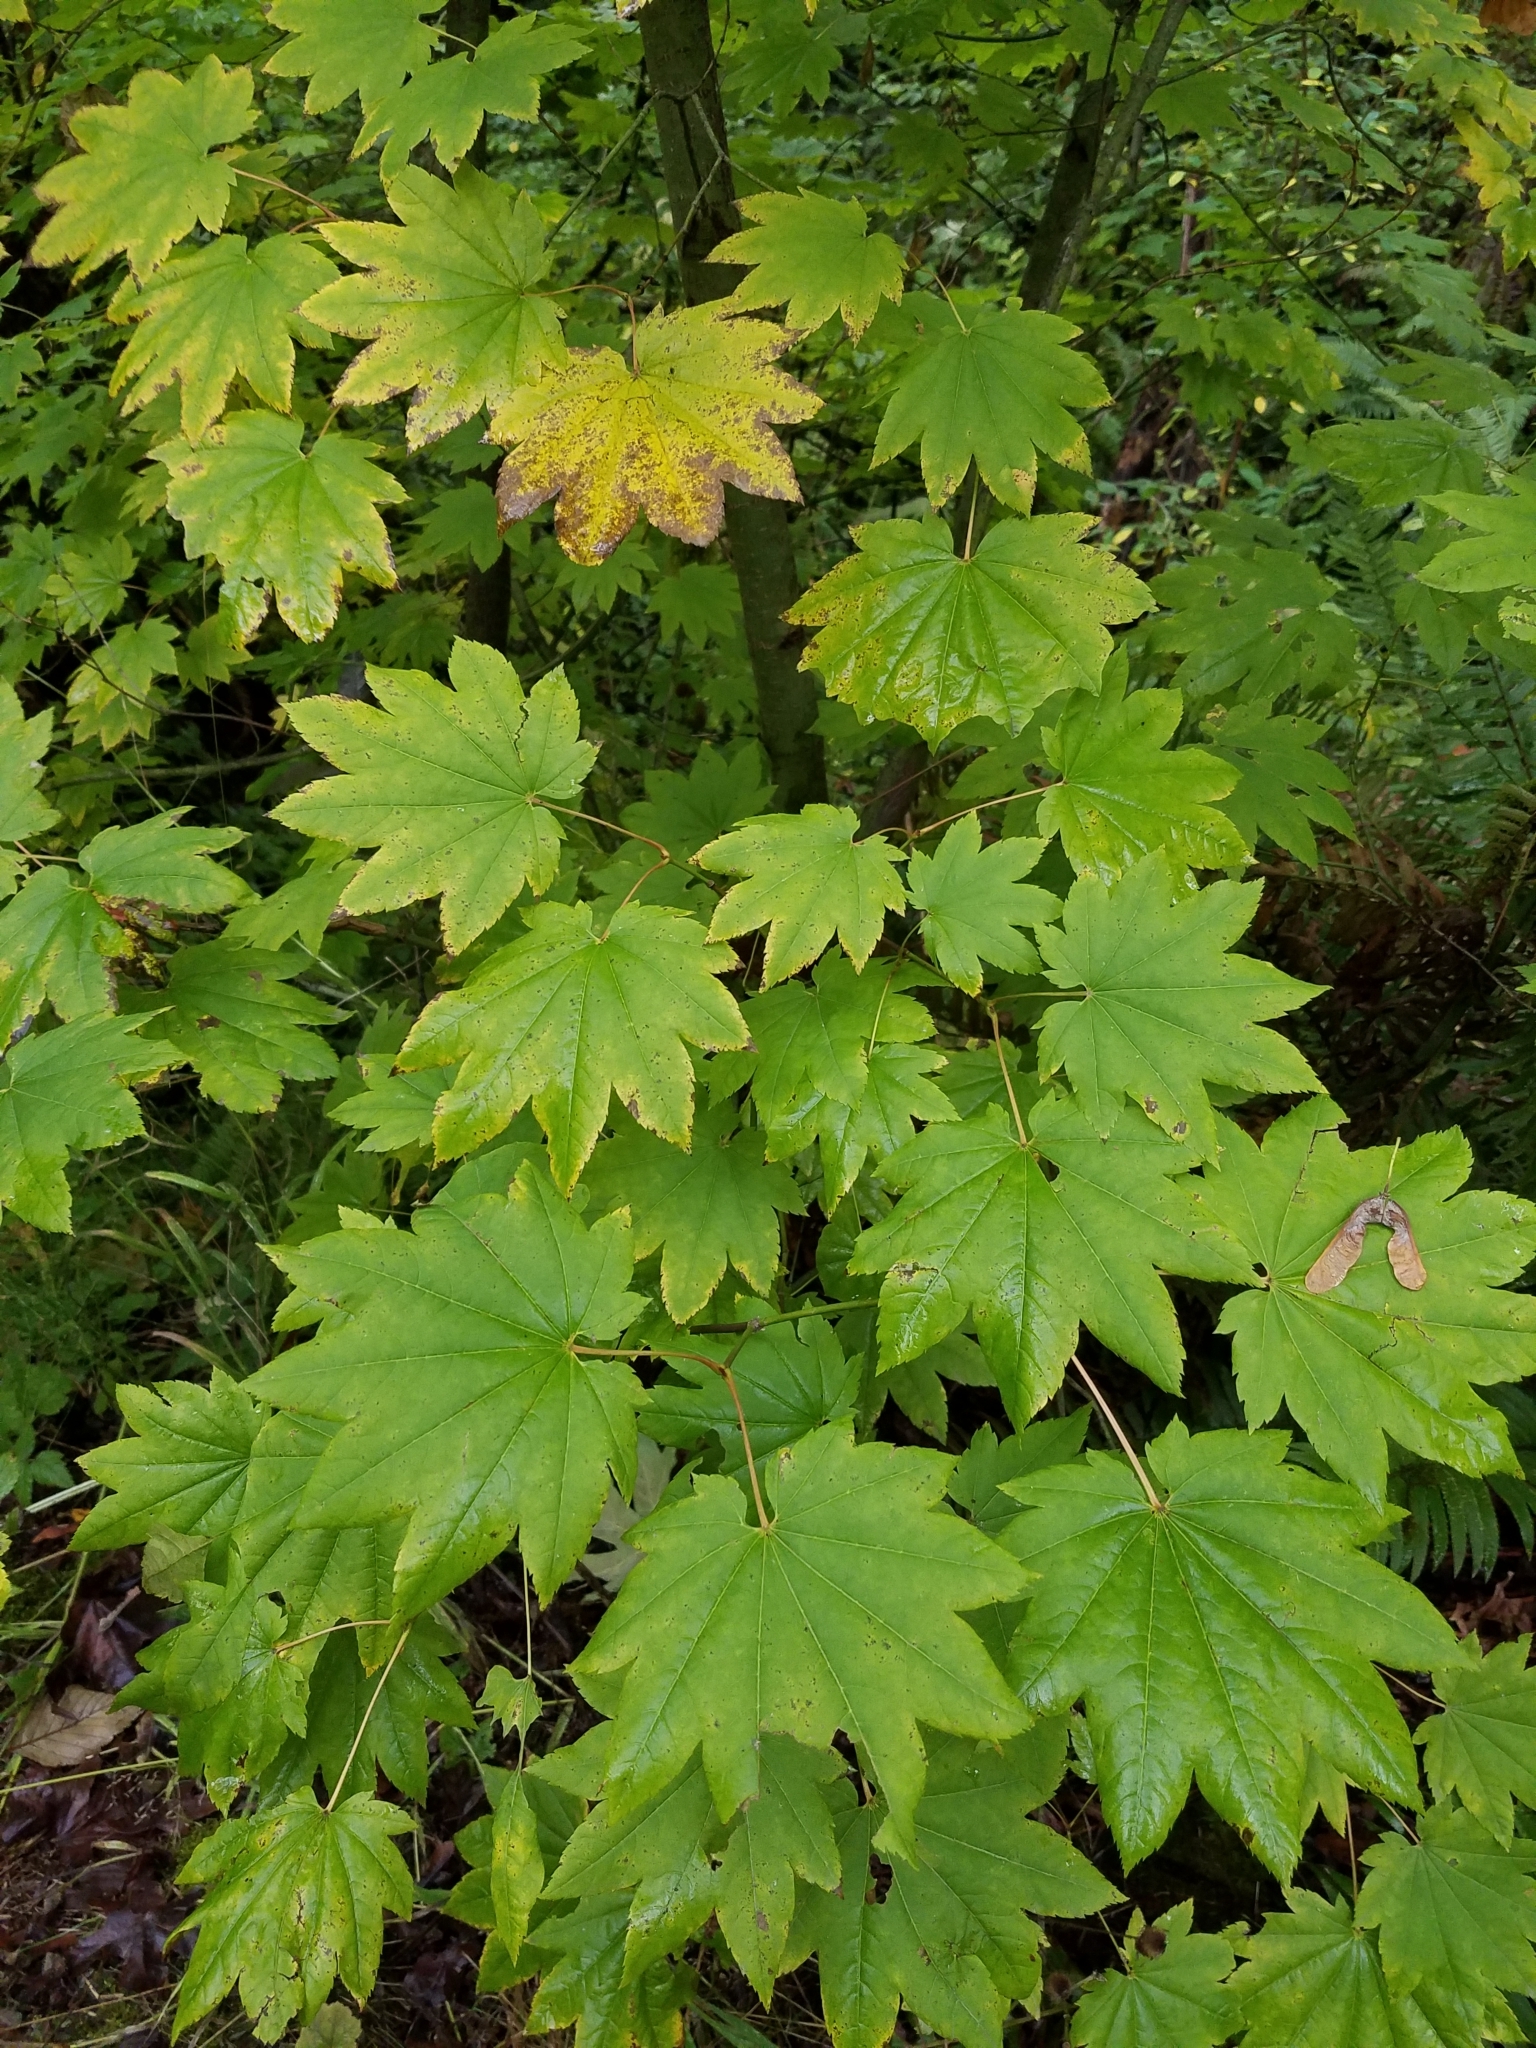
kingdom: Plantae
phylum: Tracheophyta
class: Magnoliopsida
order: Sapindales
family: Sapindaceae
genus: Acer
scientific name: Acer circinatum
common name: Vine maple
